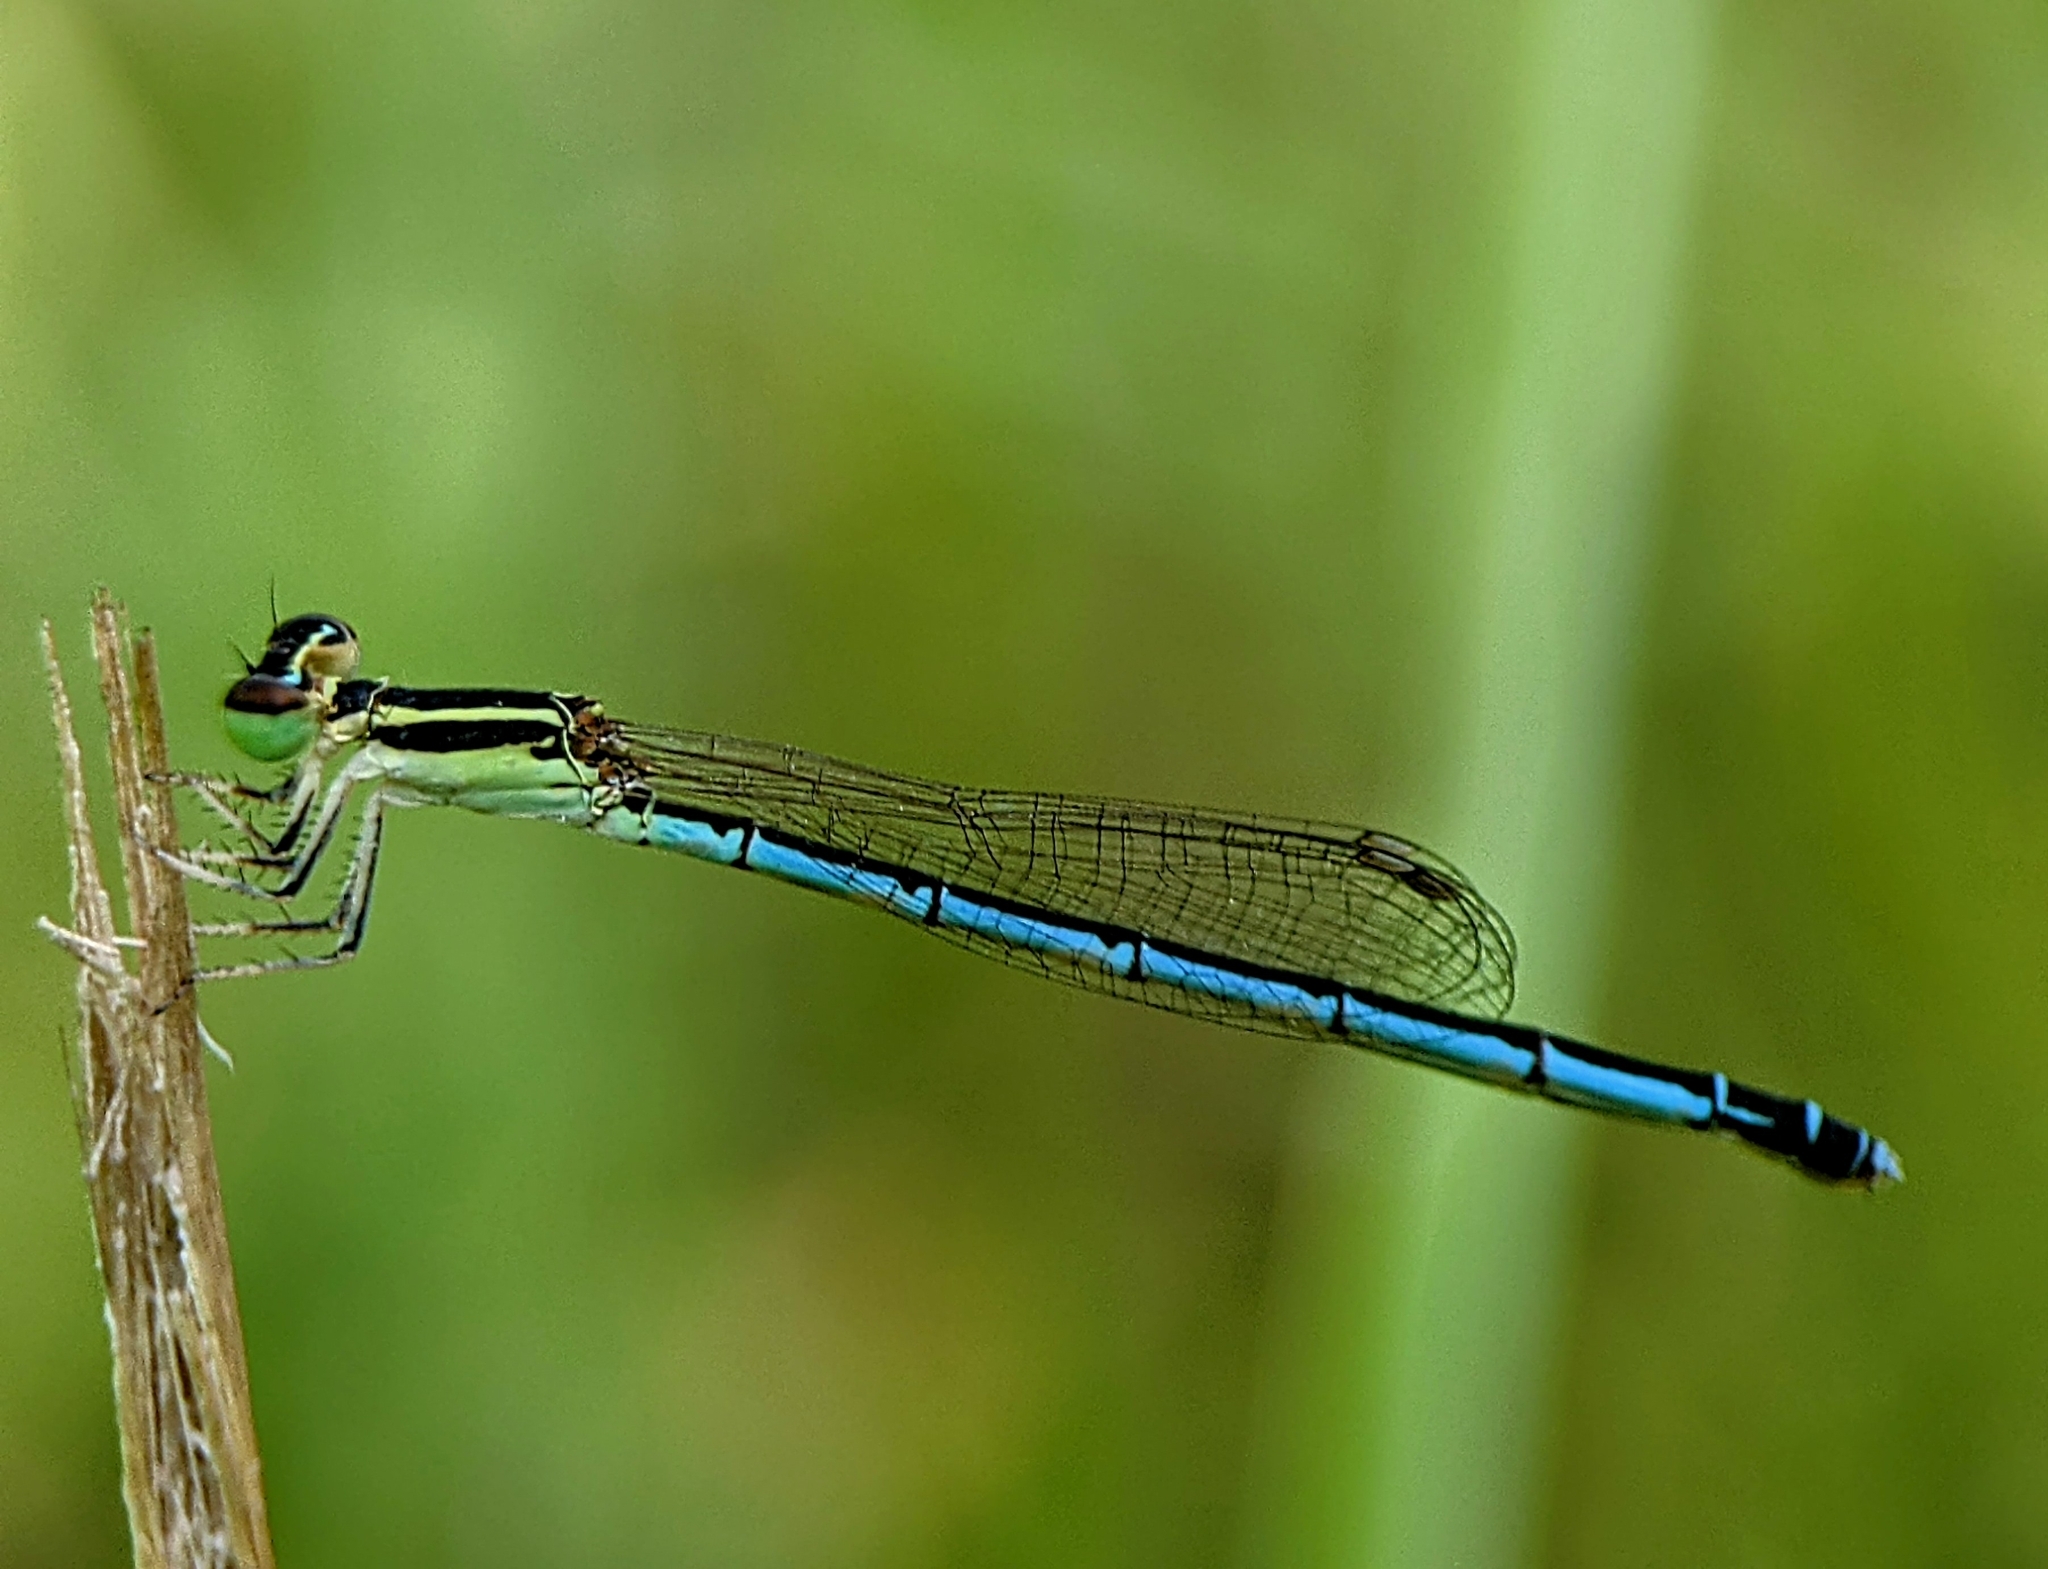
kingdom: Animalia
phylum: Arthropoda
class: Insecta
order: Odonata
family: Coenagrionidae
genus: Agriocnemis
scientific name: Agriocnemis nana
